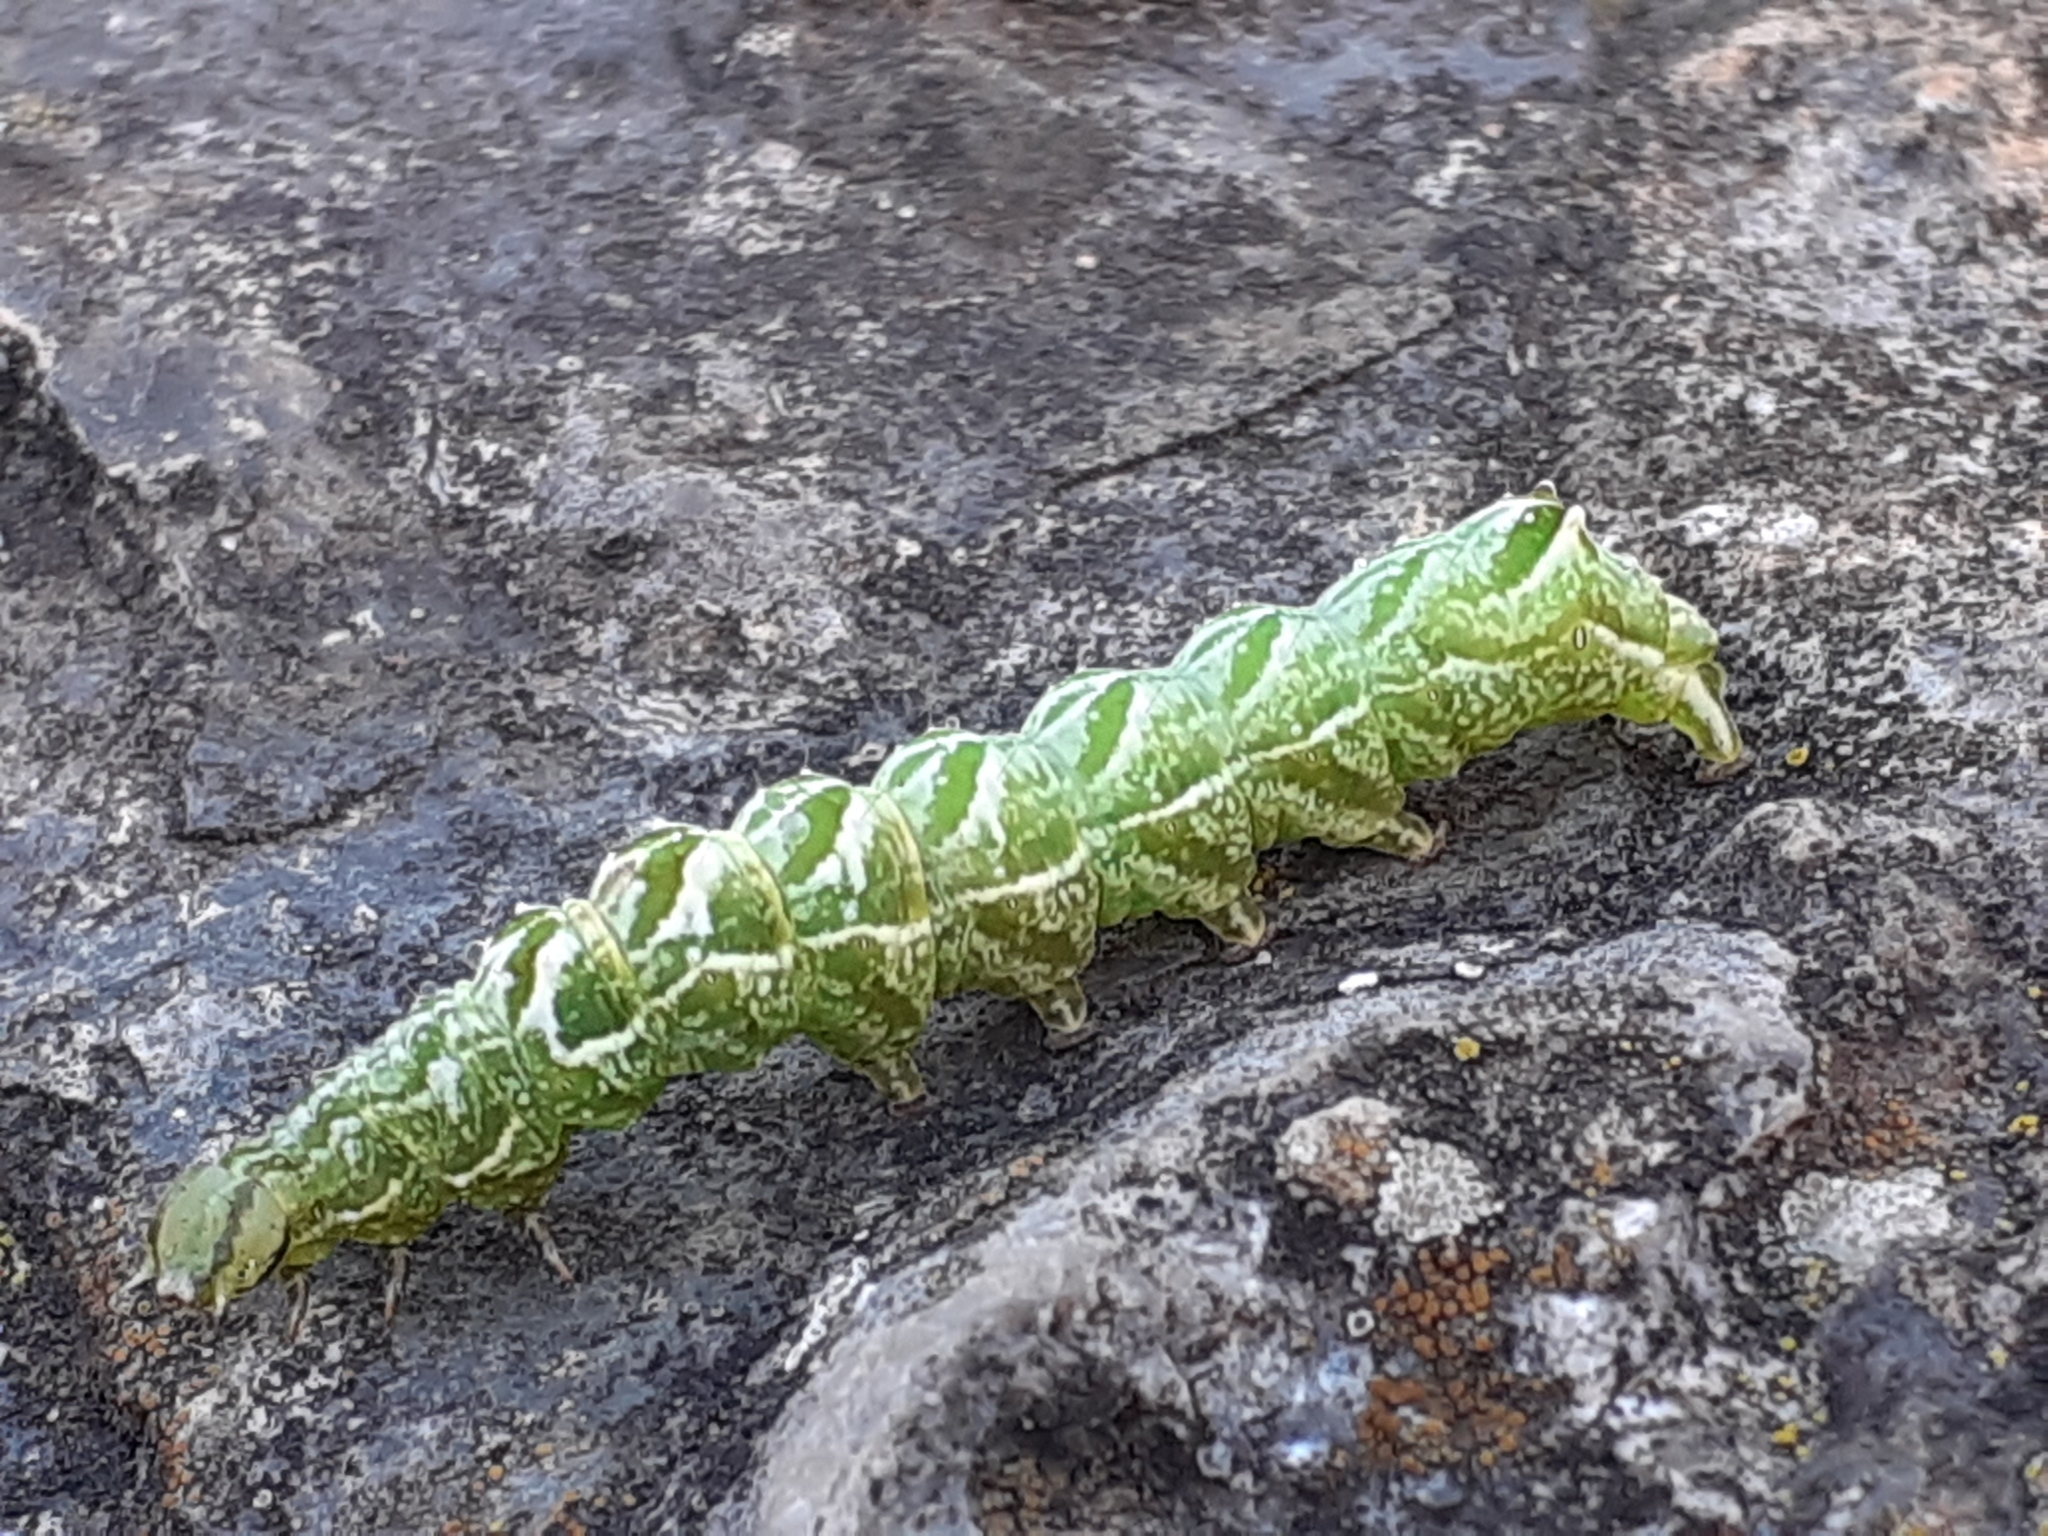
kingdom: Animalia
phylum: Arthropoda
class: Insecta
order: Lepidoptera
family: Noctuidae
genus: Abrostola
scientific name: Abrostola tripartita
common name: Spectacle
